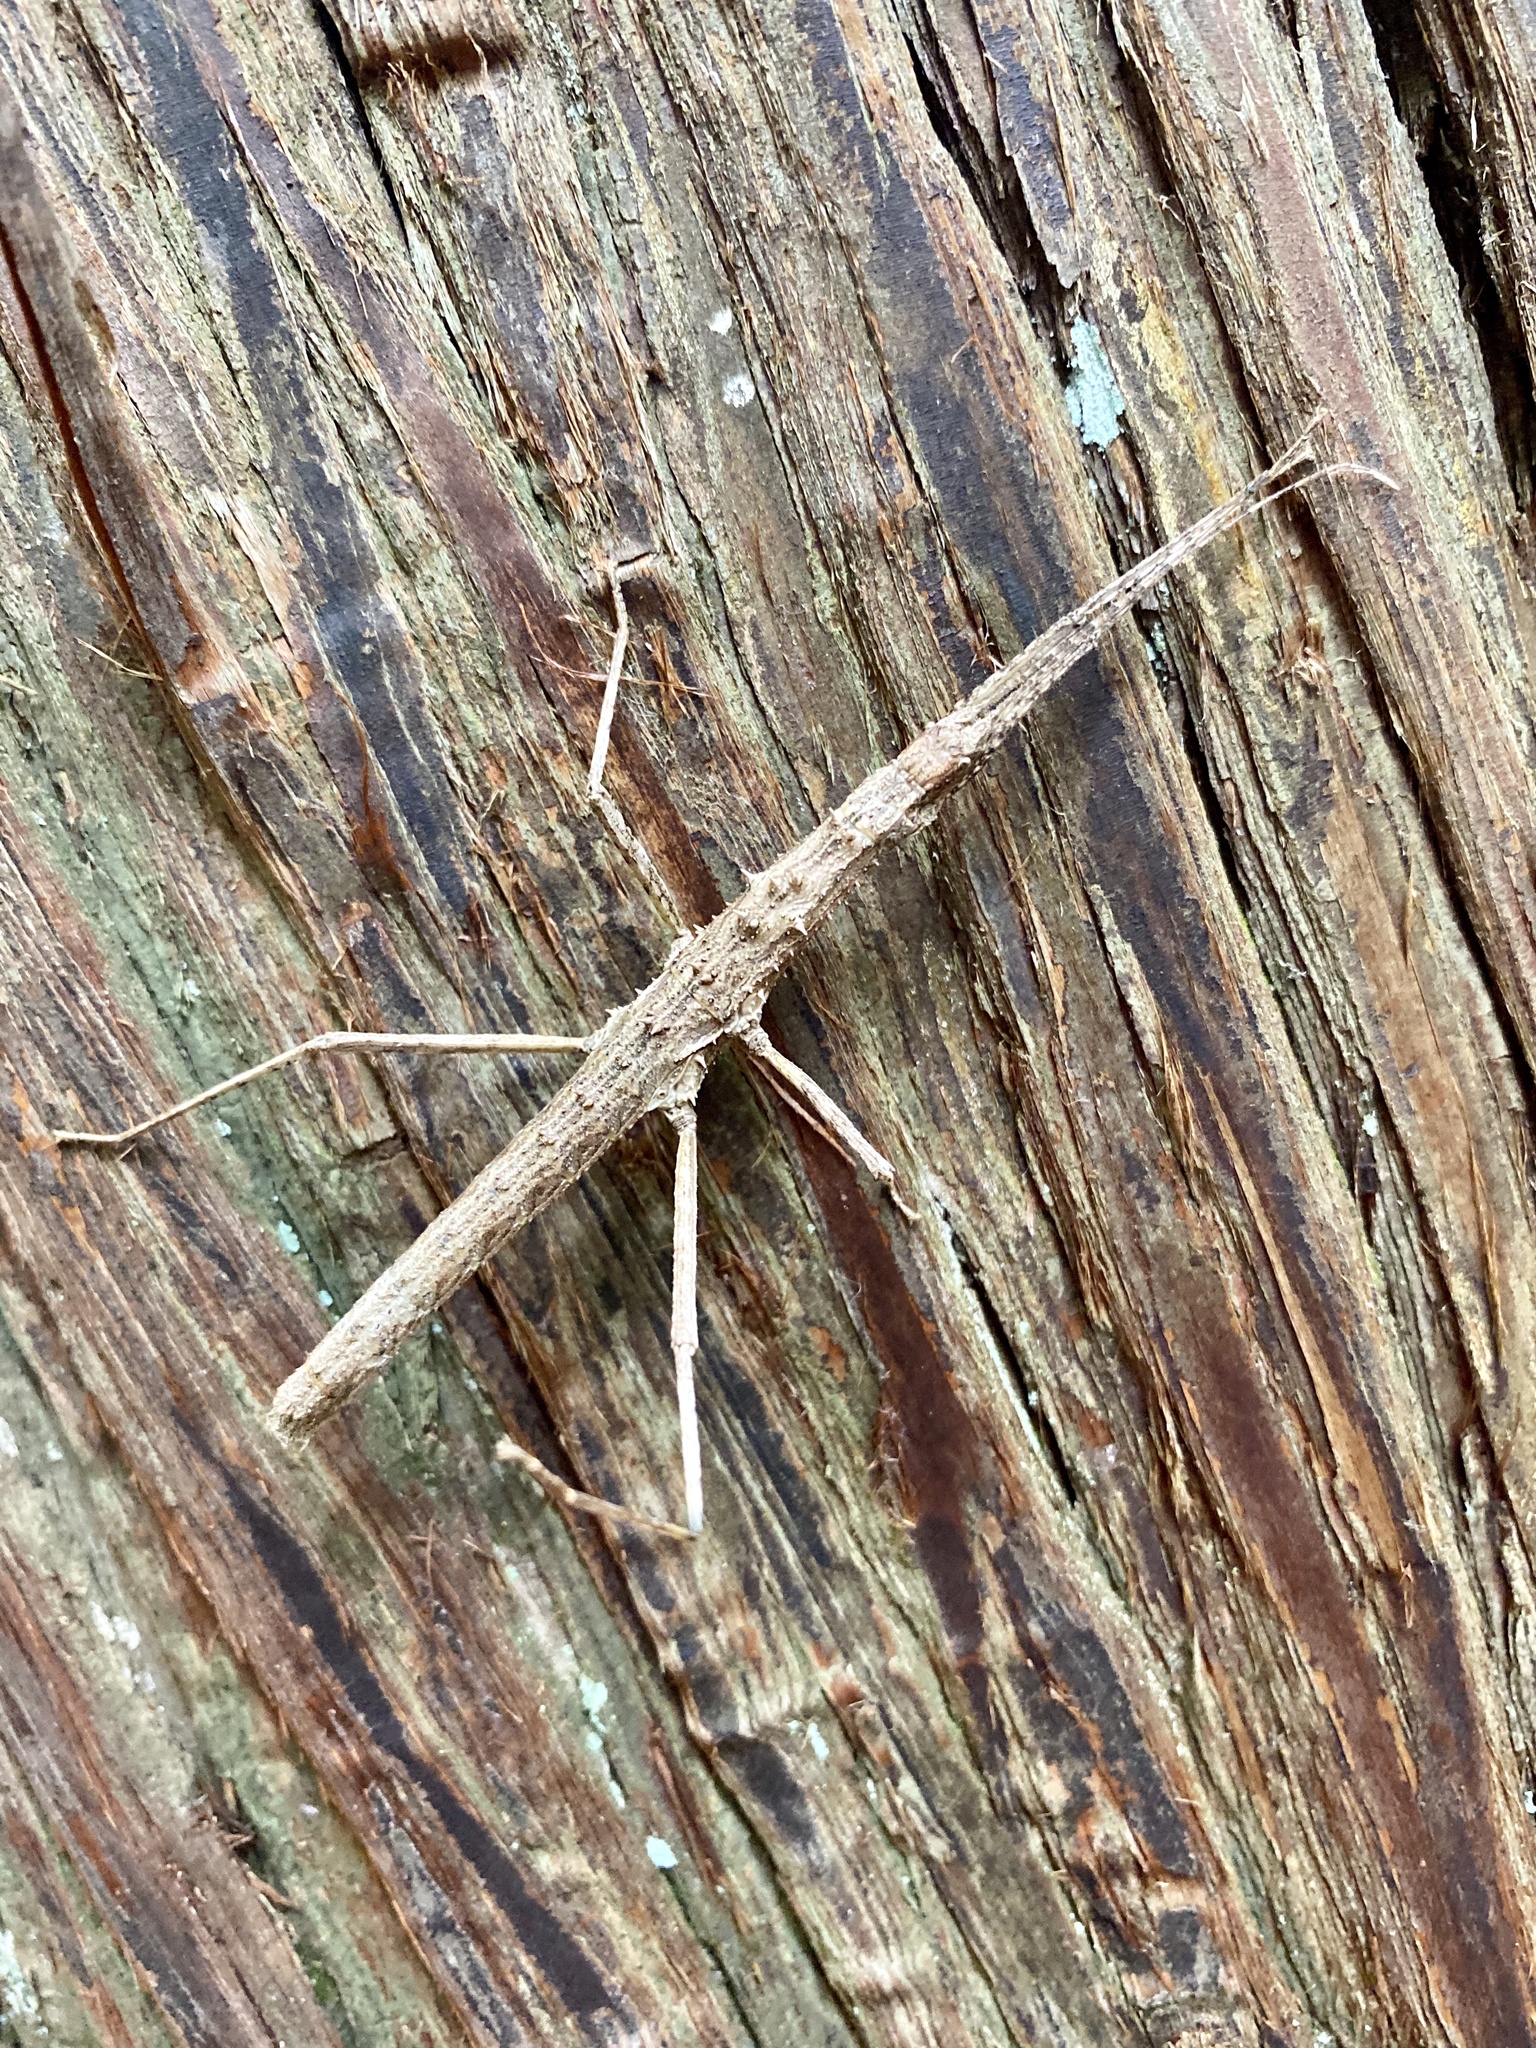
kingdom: Animalia
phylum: Arthropoda
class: Insecta
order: Phasmida
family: Lonchodidae
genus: Neohirasea
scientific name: Neohirasea japonica
